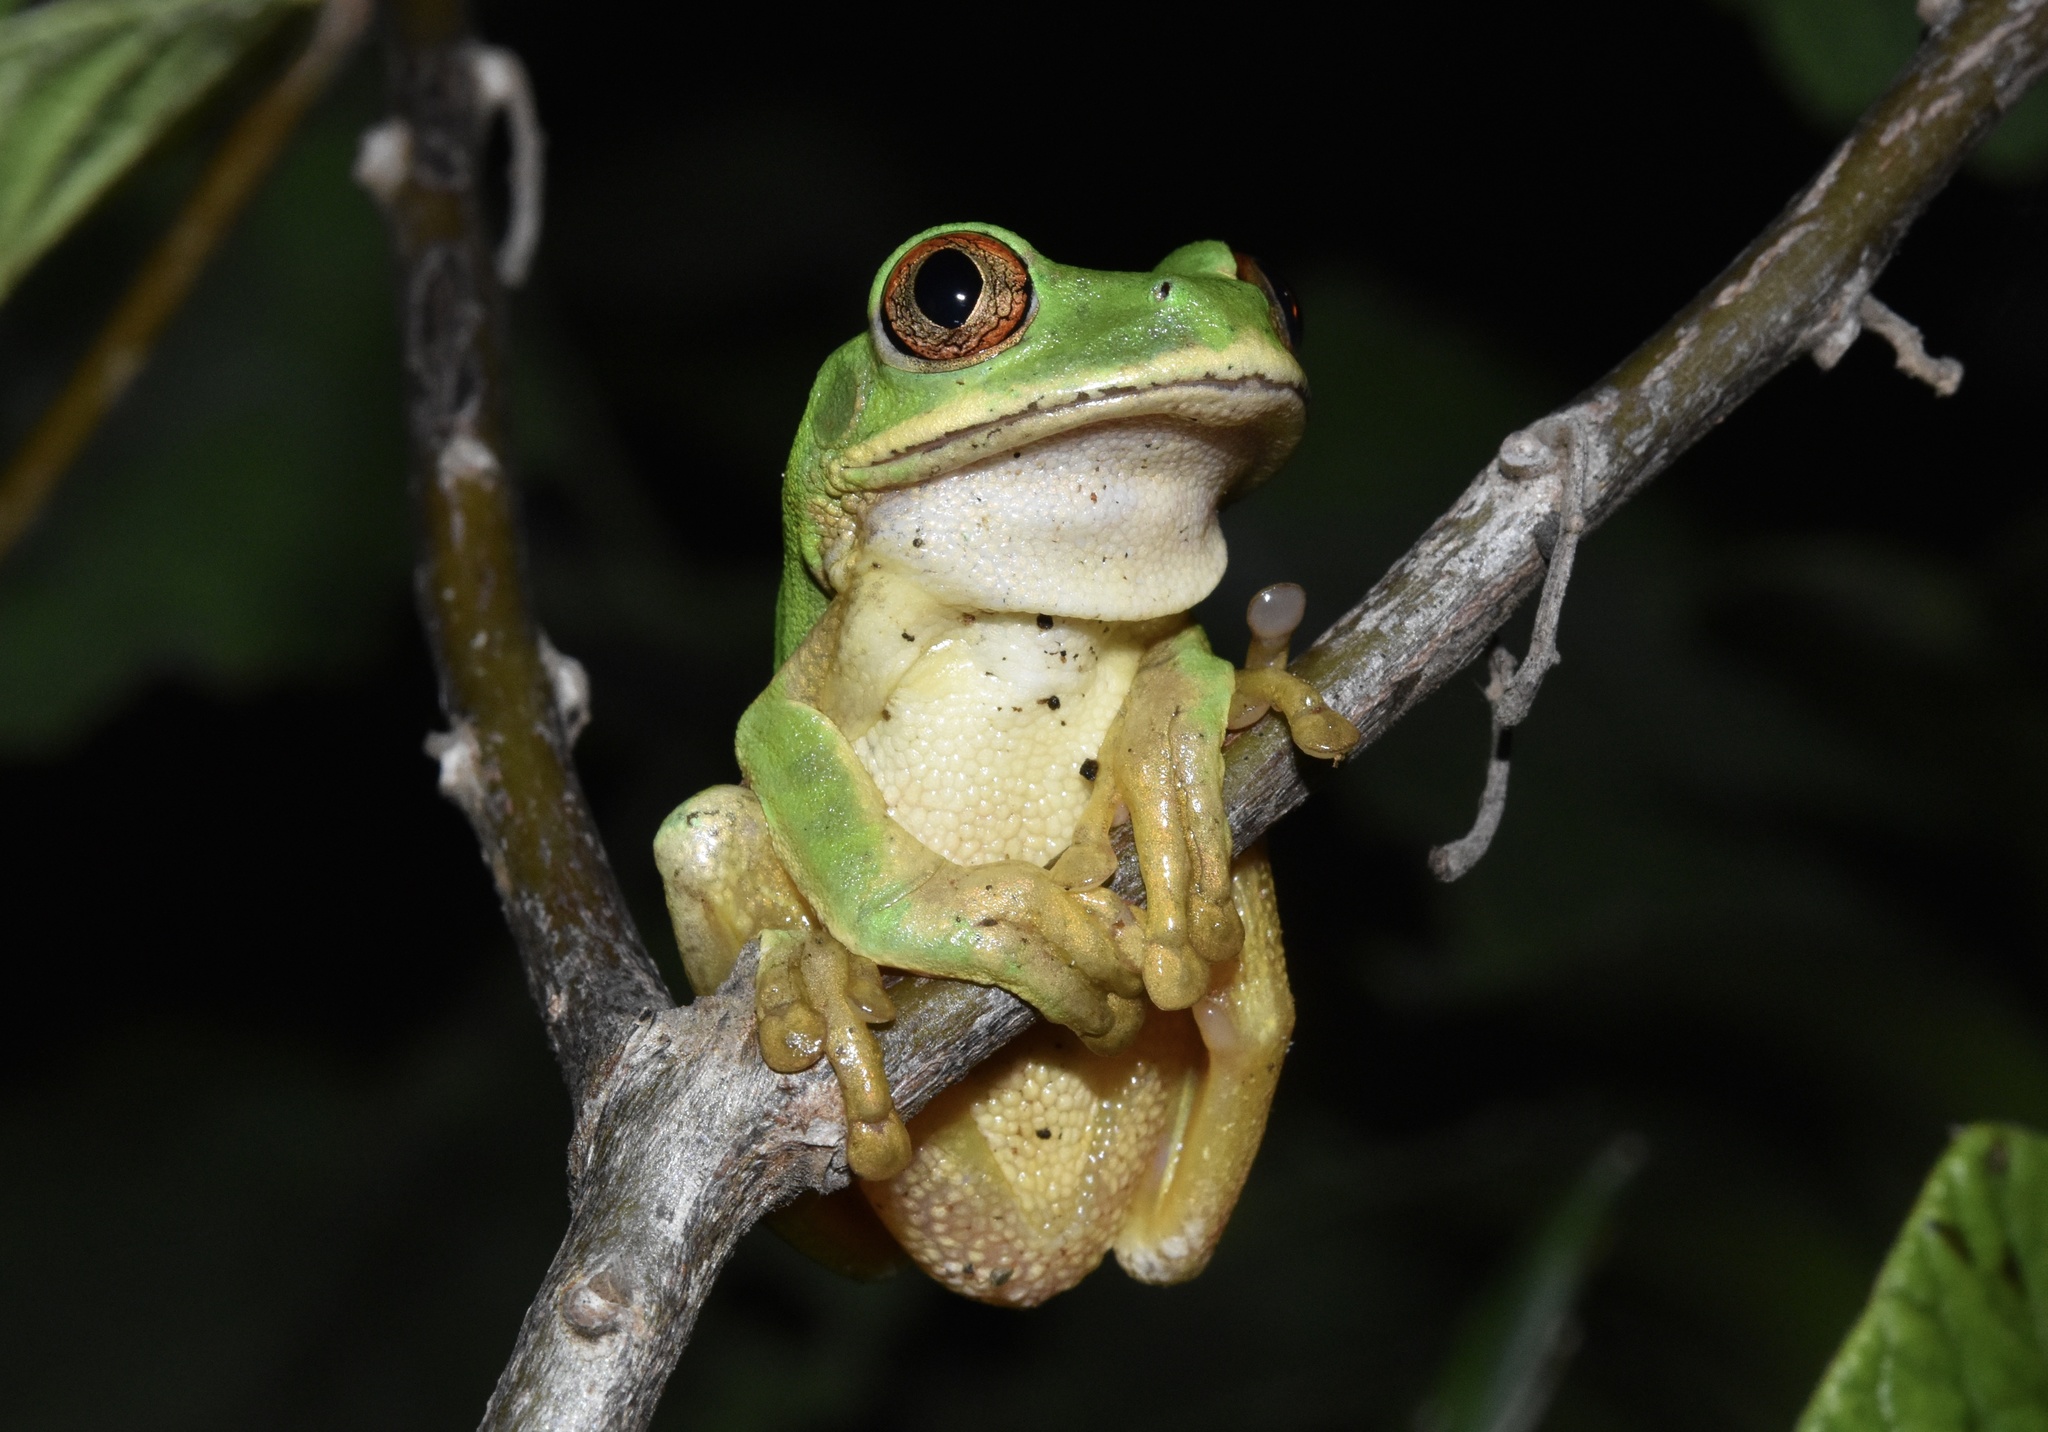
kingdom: Animalia
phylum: Chordata
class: Amphibia
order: Anura
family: Arthroleptidae
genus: Leptopelis
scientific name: Leptopelis natalensis
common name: Natal tree frog
